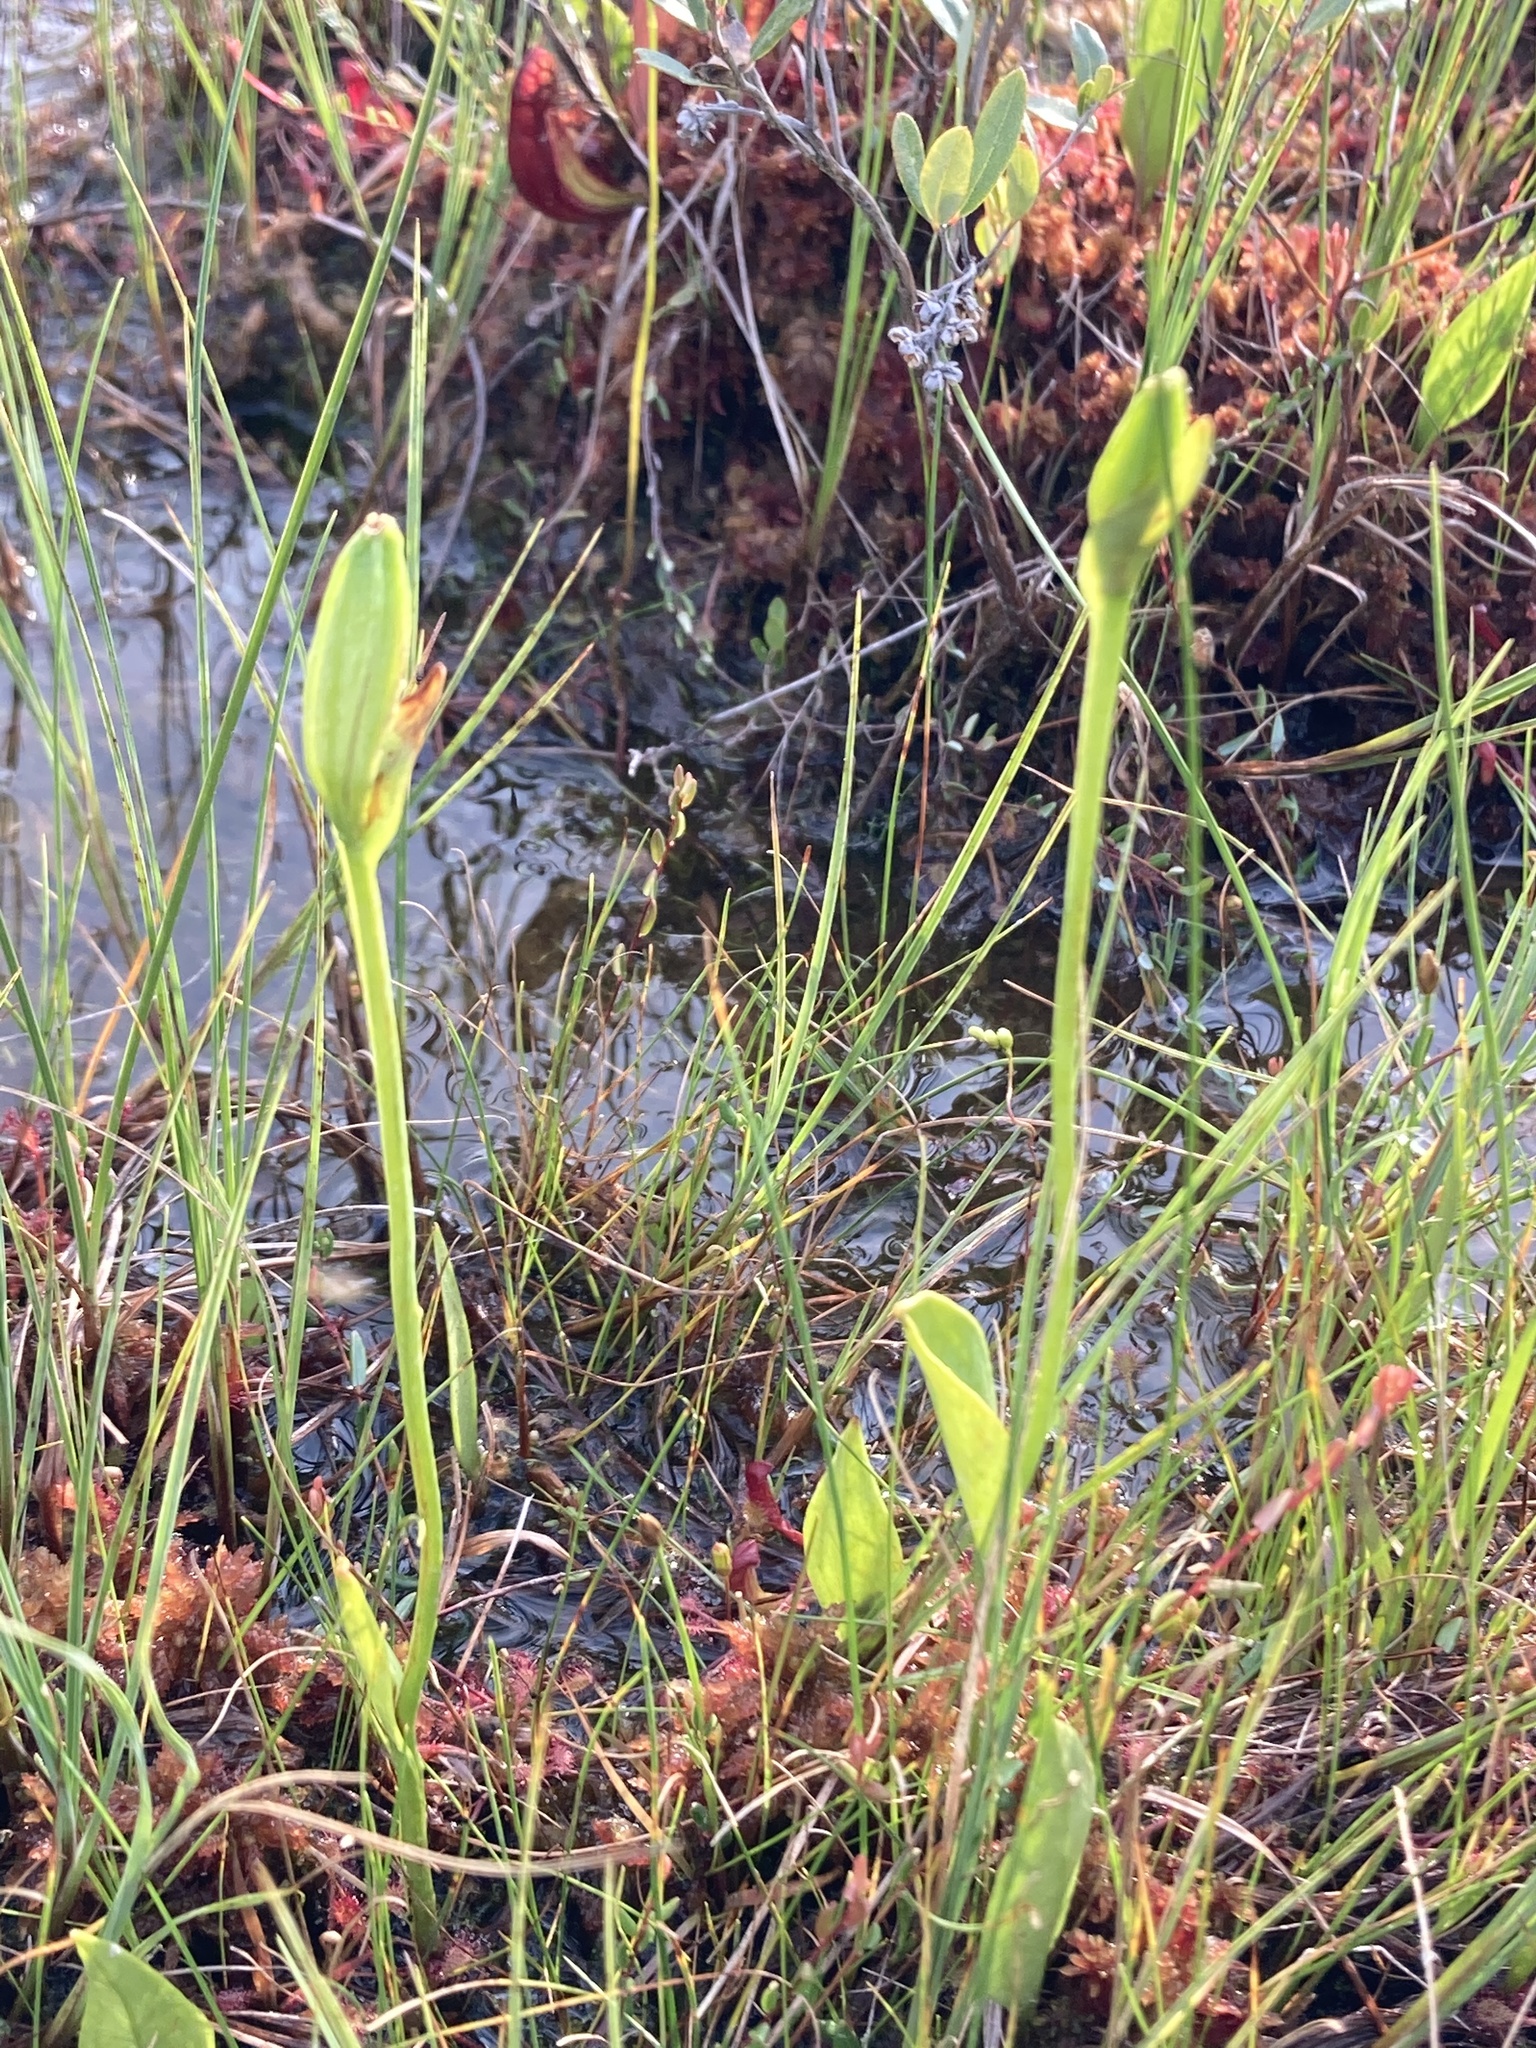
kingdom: Plantae
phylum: Tracheophyta
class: Liliopsida
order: Asparagales
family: Orchidaceae
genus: Pogonia
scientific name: Pogonia ophioglossoides
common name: Rose pogonia
